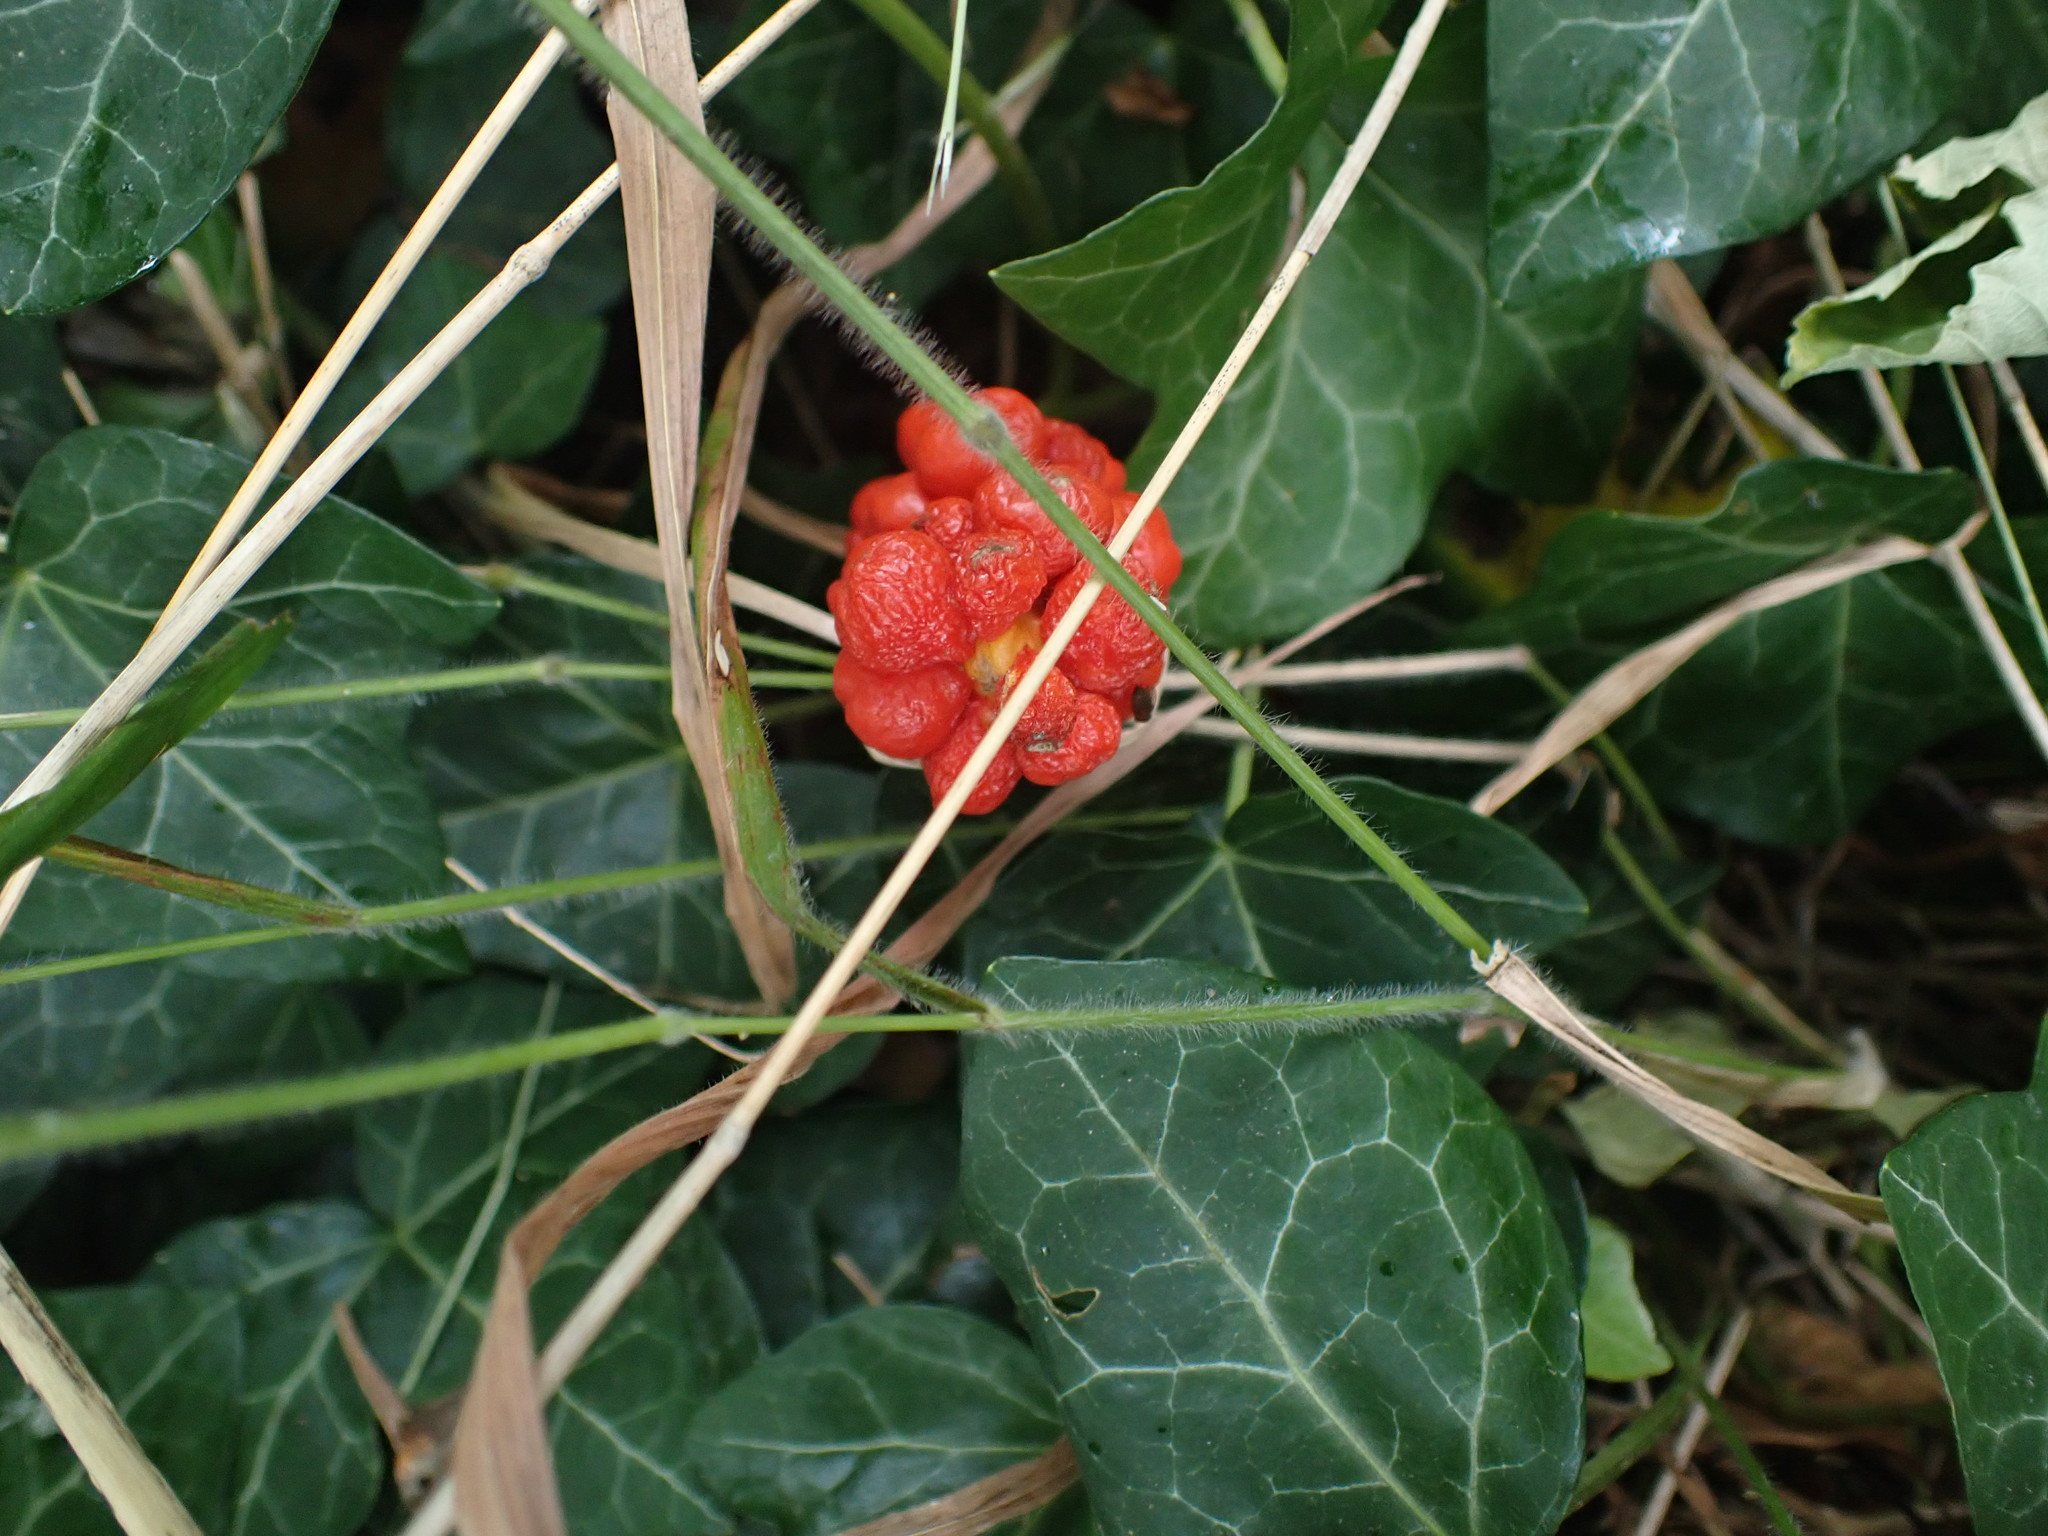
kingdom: Plantae
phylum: Tracheophyta
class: Liliopsida
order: Alismatales
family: Araceae
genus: Arum
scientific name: Arum maculatum
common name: Lords-and-ladies
